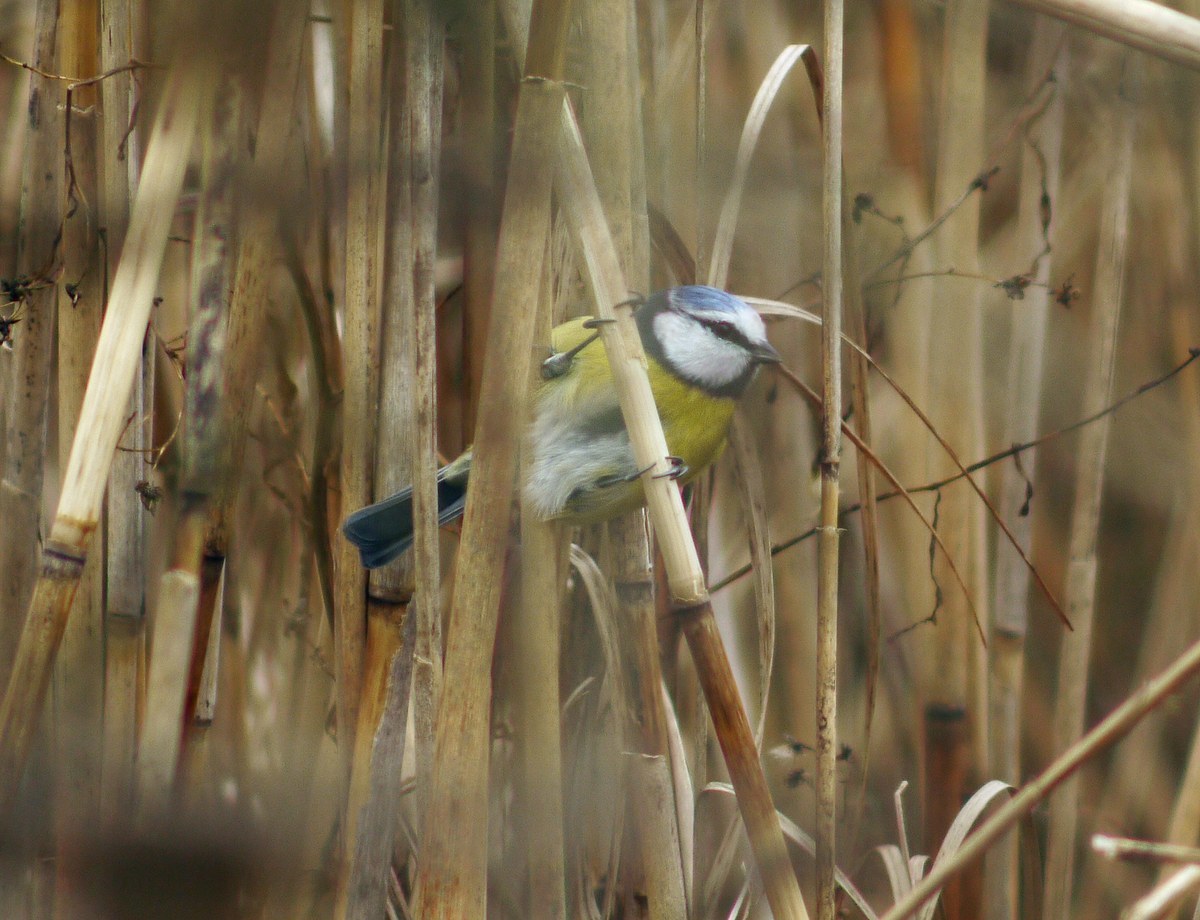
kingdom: Animalia
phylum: Chordata
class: Aves
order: Passeriformes
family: Paridae
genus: Cyanistes
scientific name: Cyanistes caeruleus
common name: Eurasian blue tit
